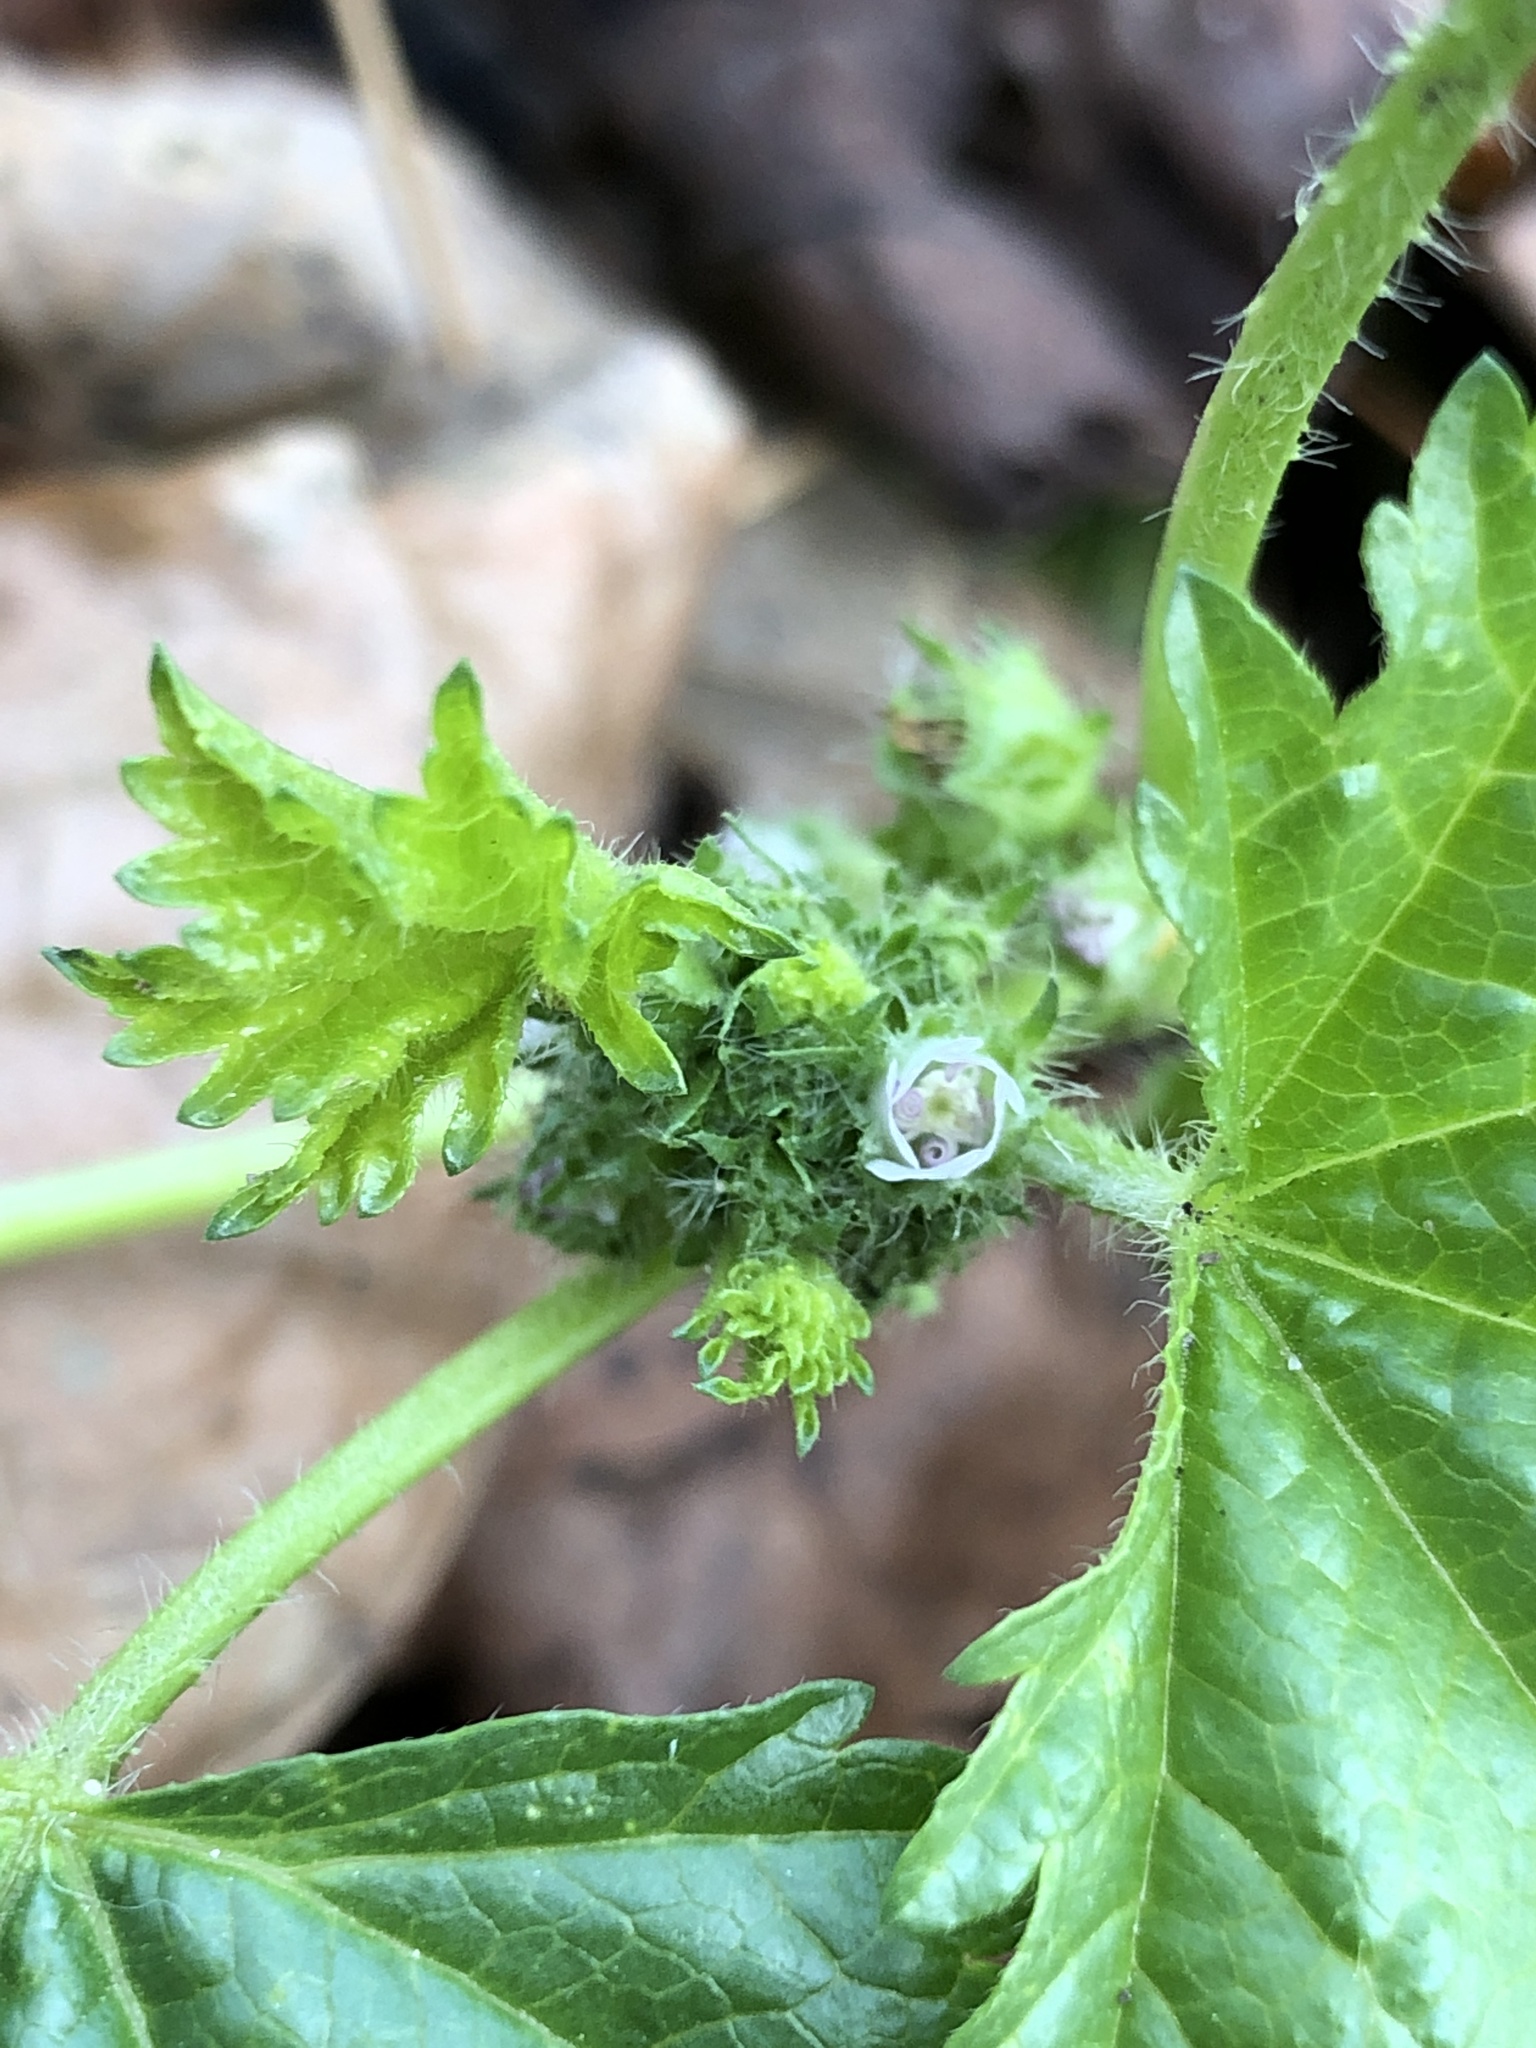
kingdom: Plantae
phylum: Tracheophyta
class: Magnoliopsida
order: Malvales
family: Malvaceae
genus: Malva
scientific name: Malva pusilla
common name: Small mallow
